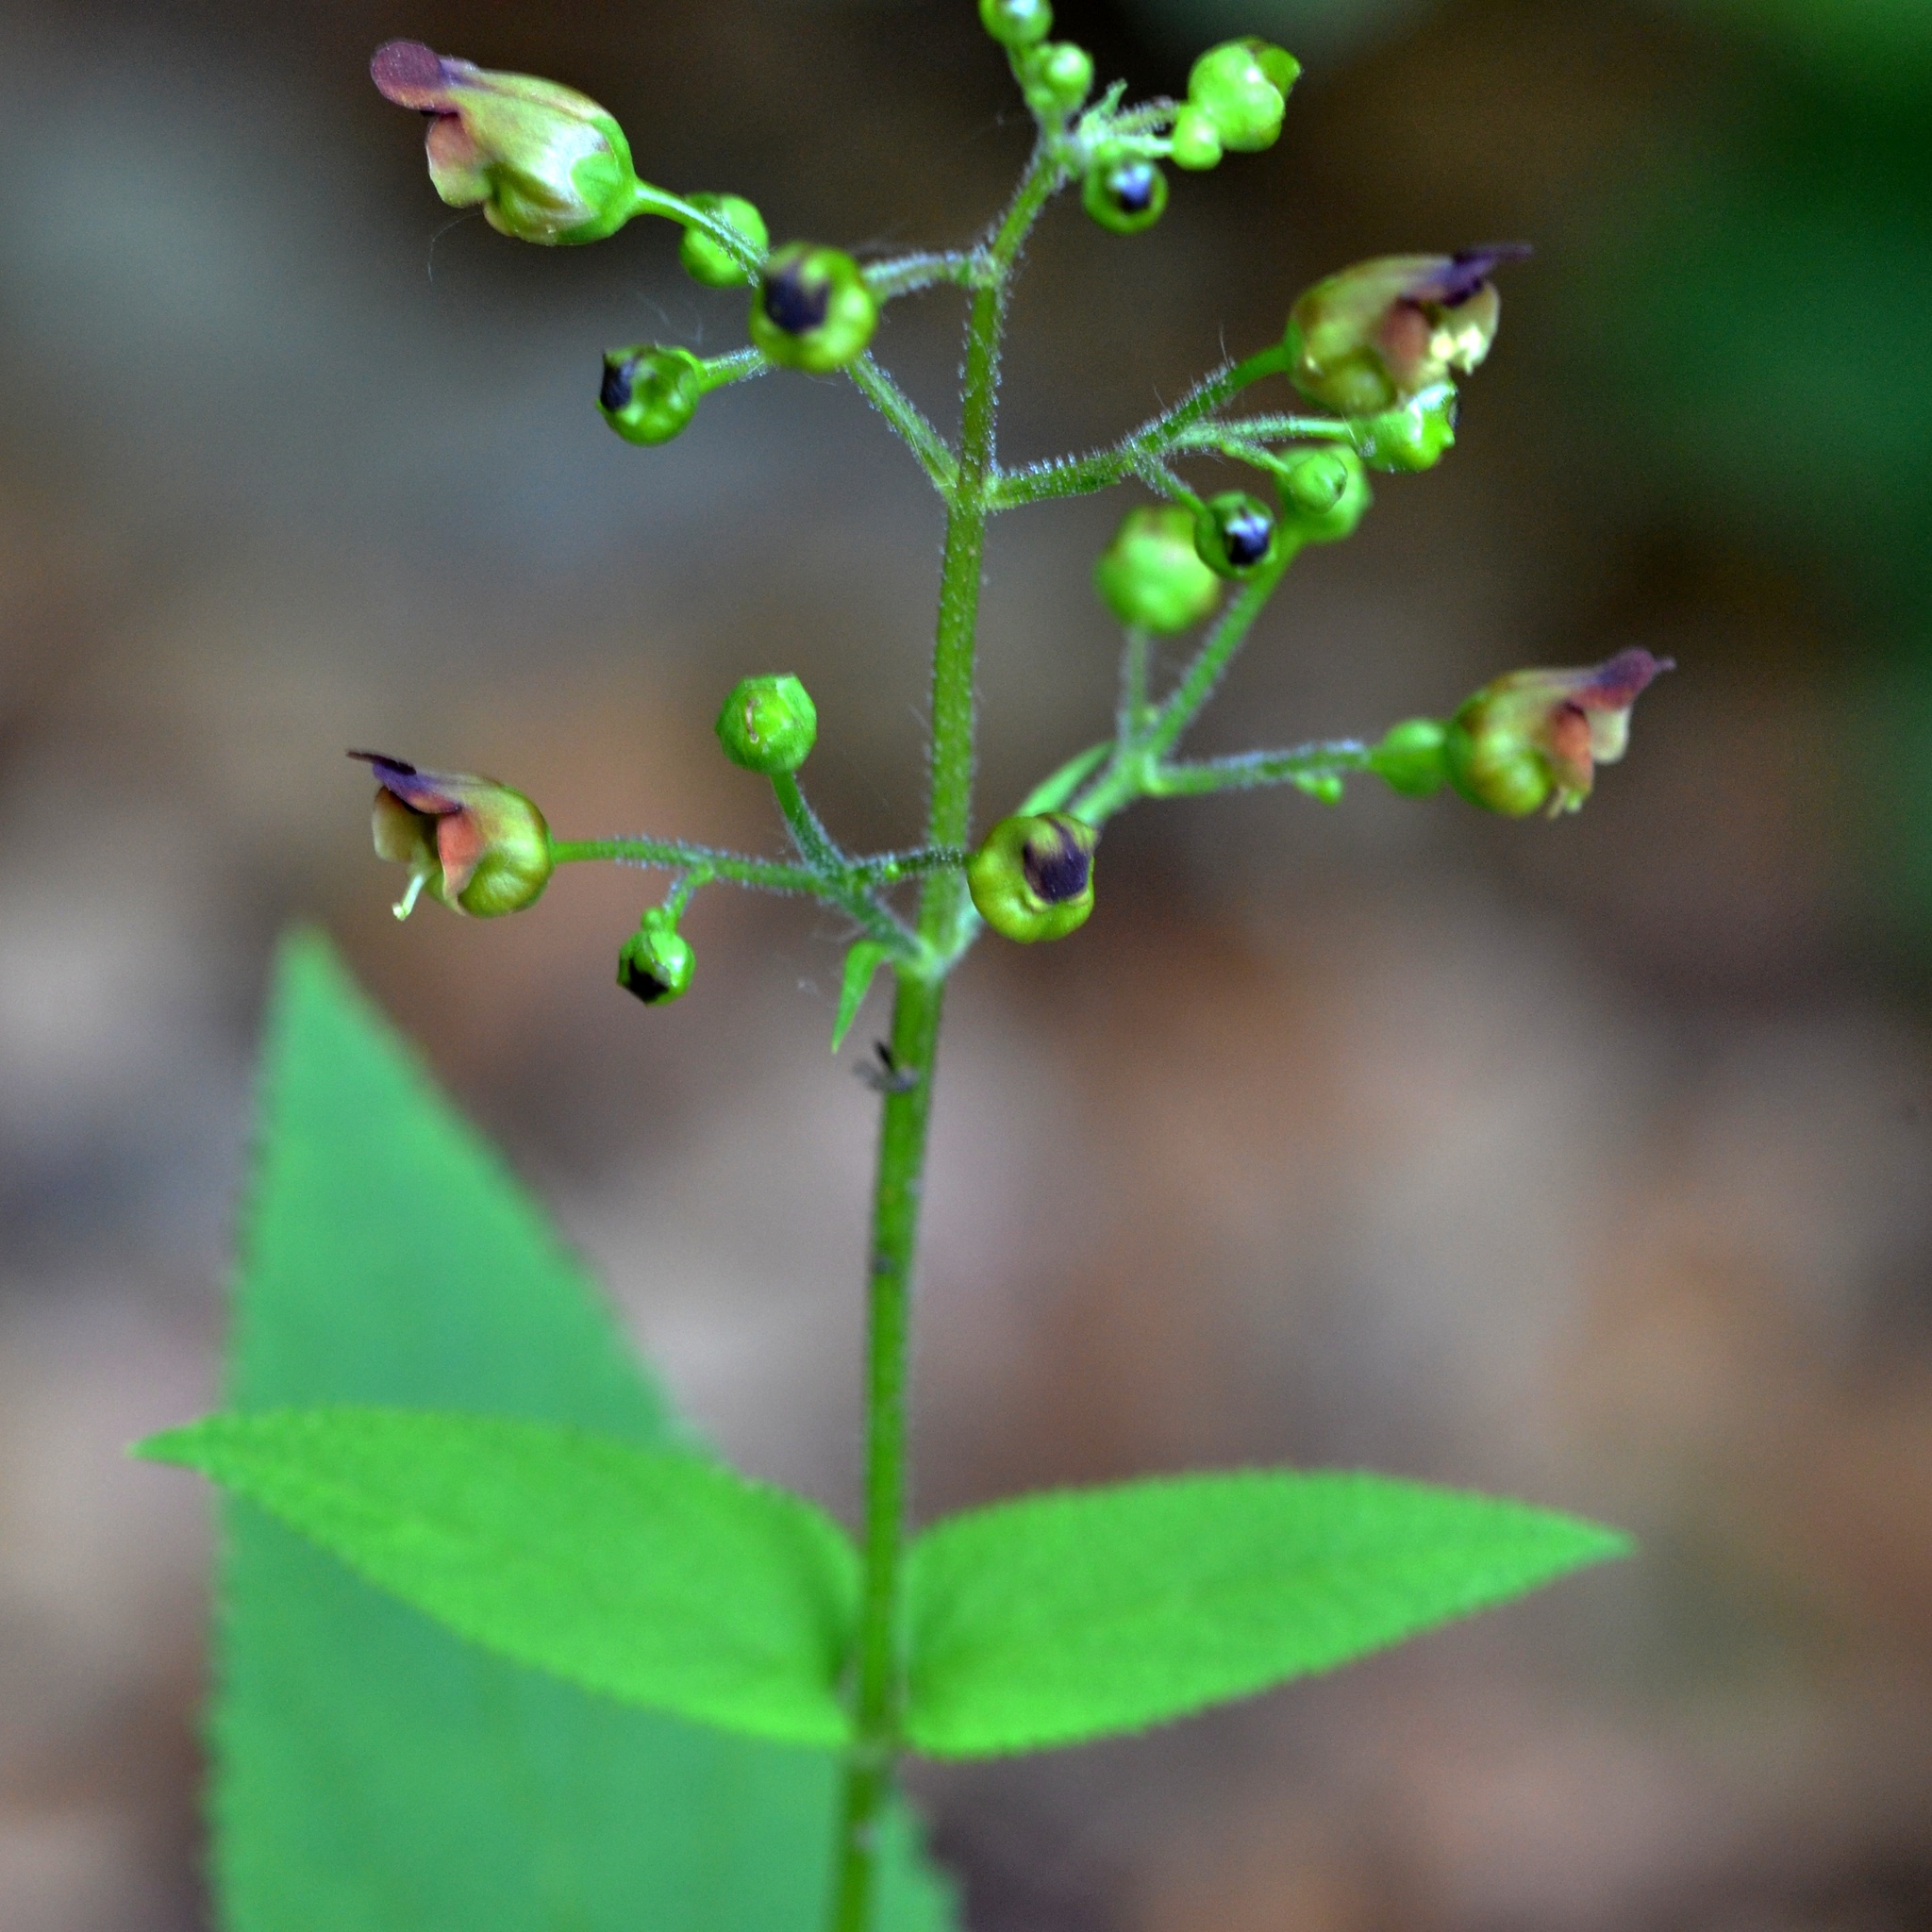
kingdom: Plantae
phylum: Tracheophyta
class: Magnoliopsida
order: Lamiales
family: Scrophulariaceae
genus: Scrophularia
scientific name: Scrophularia nodosa
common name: Common figwort
